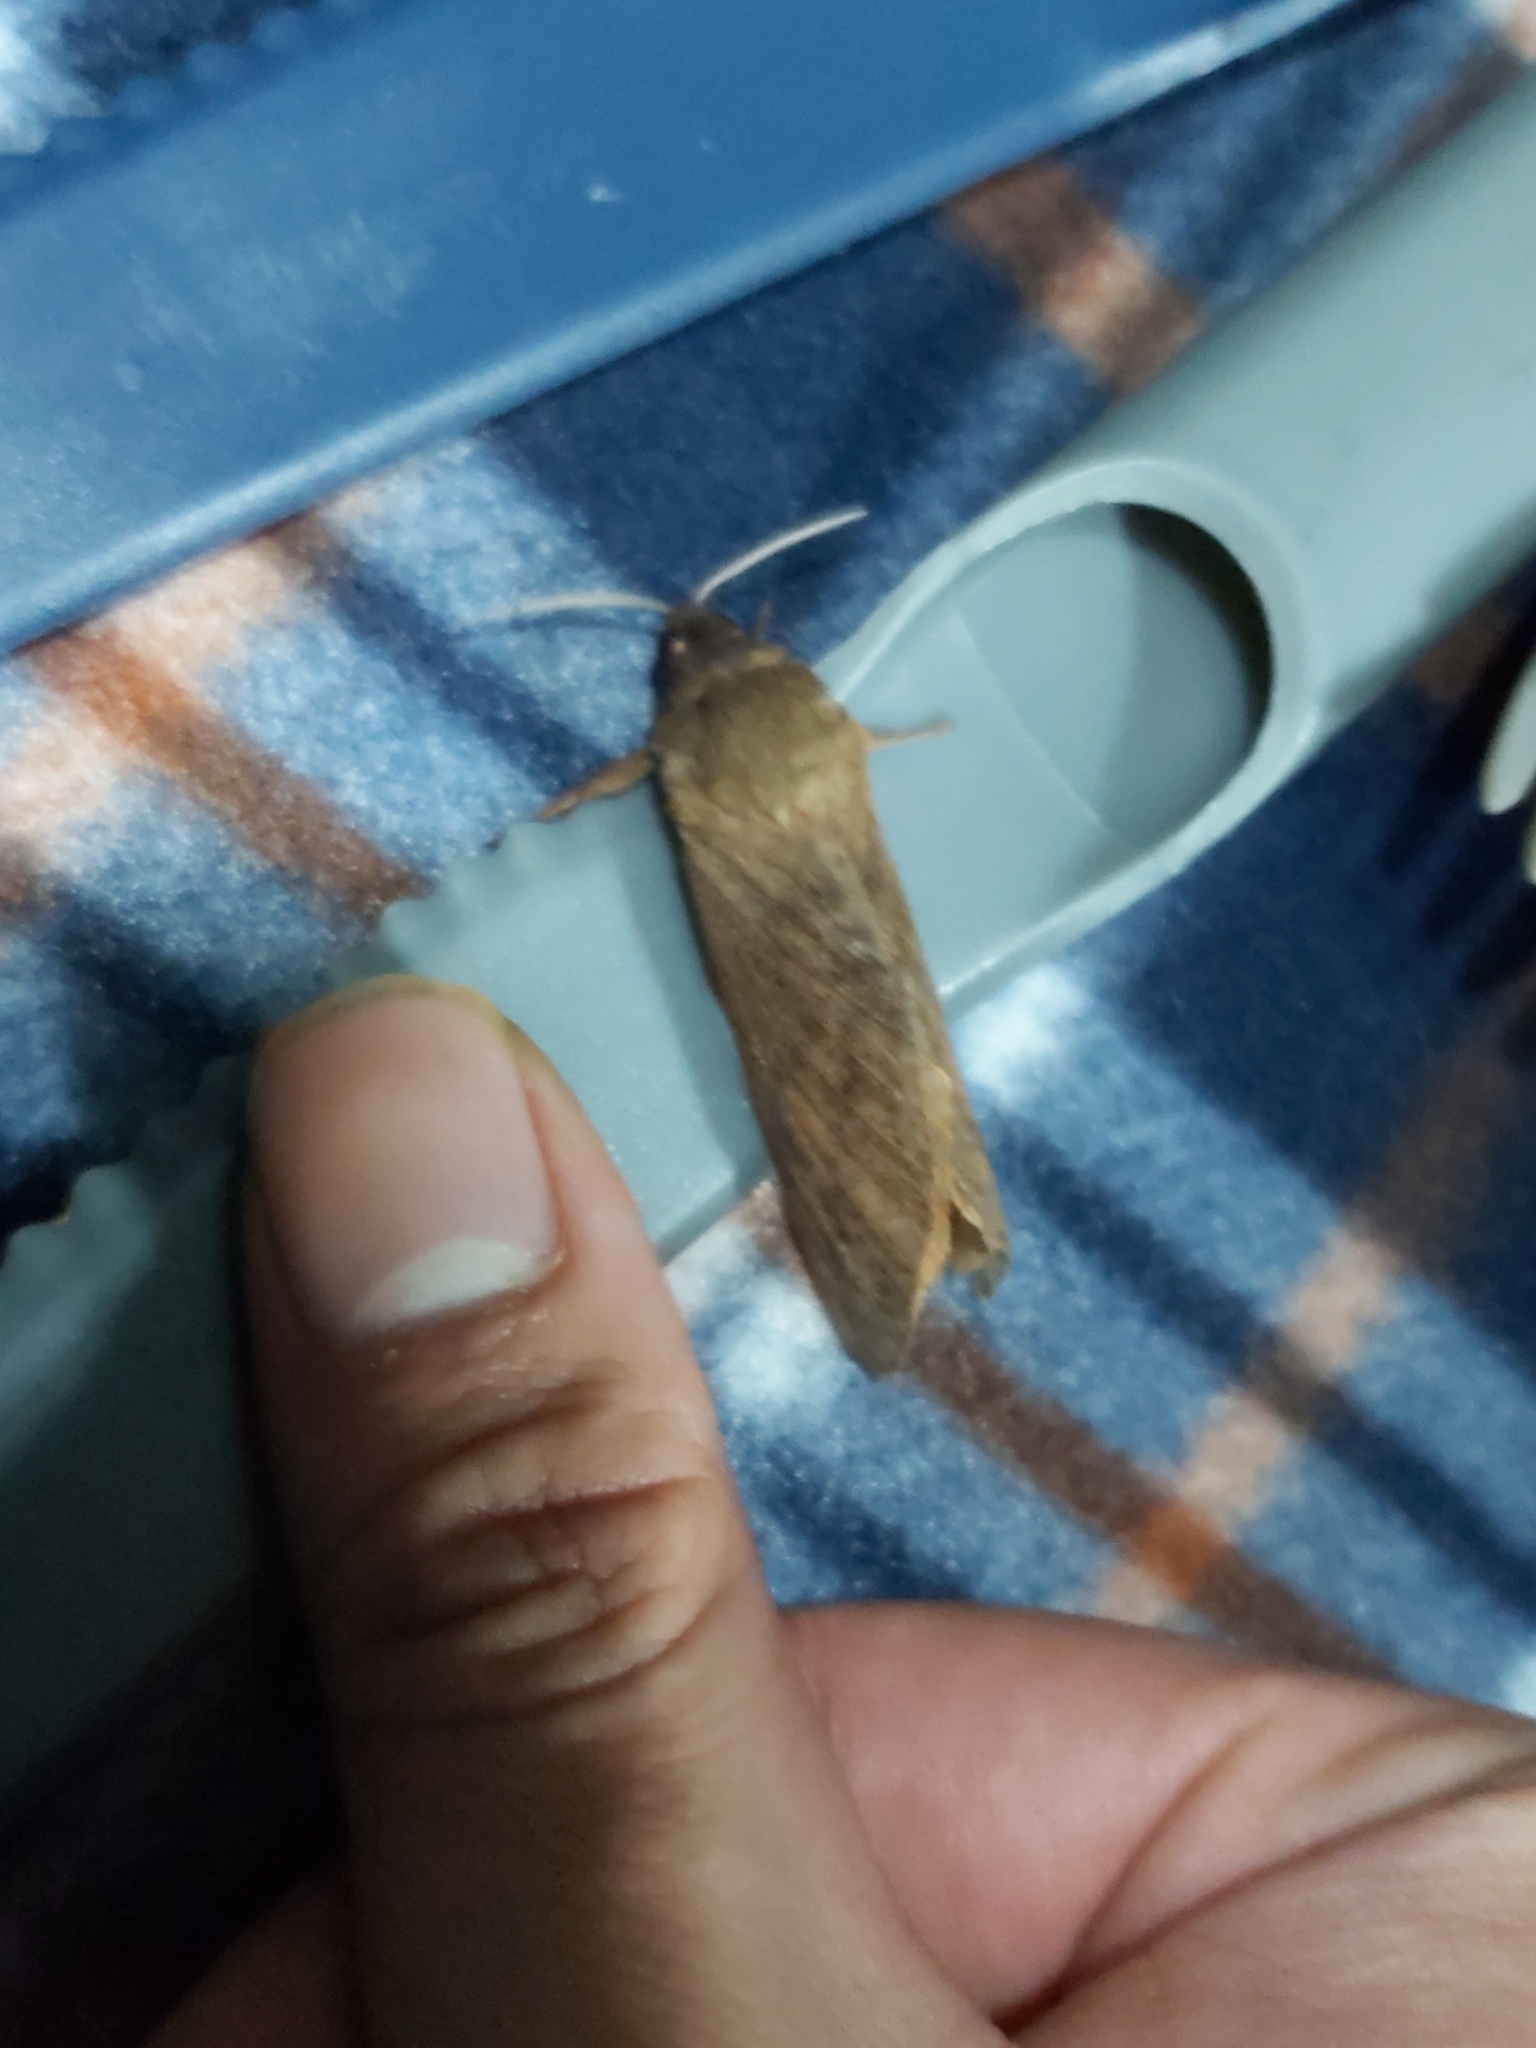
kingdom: Animalia
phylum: Arthropoda
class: Insecta
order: Lepidoptera
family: Hepialidae
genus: Oxycanus
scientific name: Oxycanus subvaria
